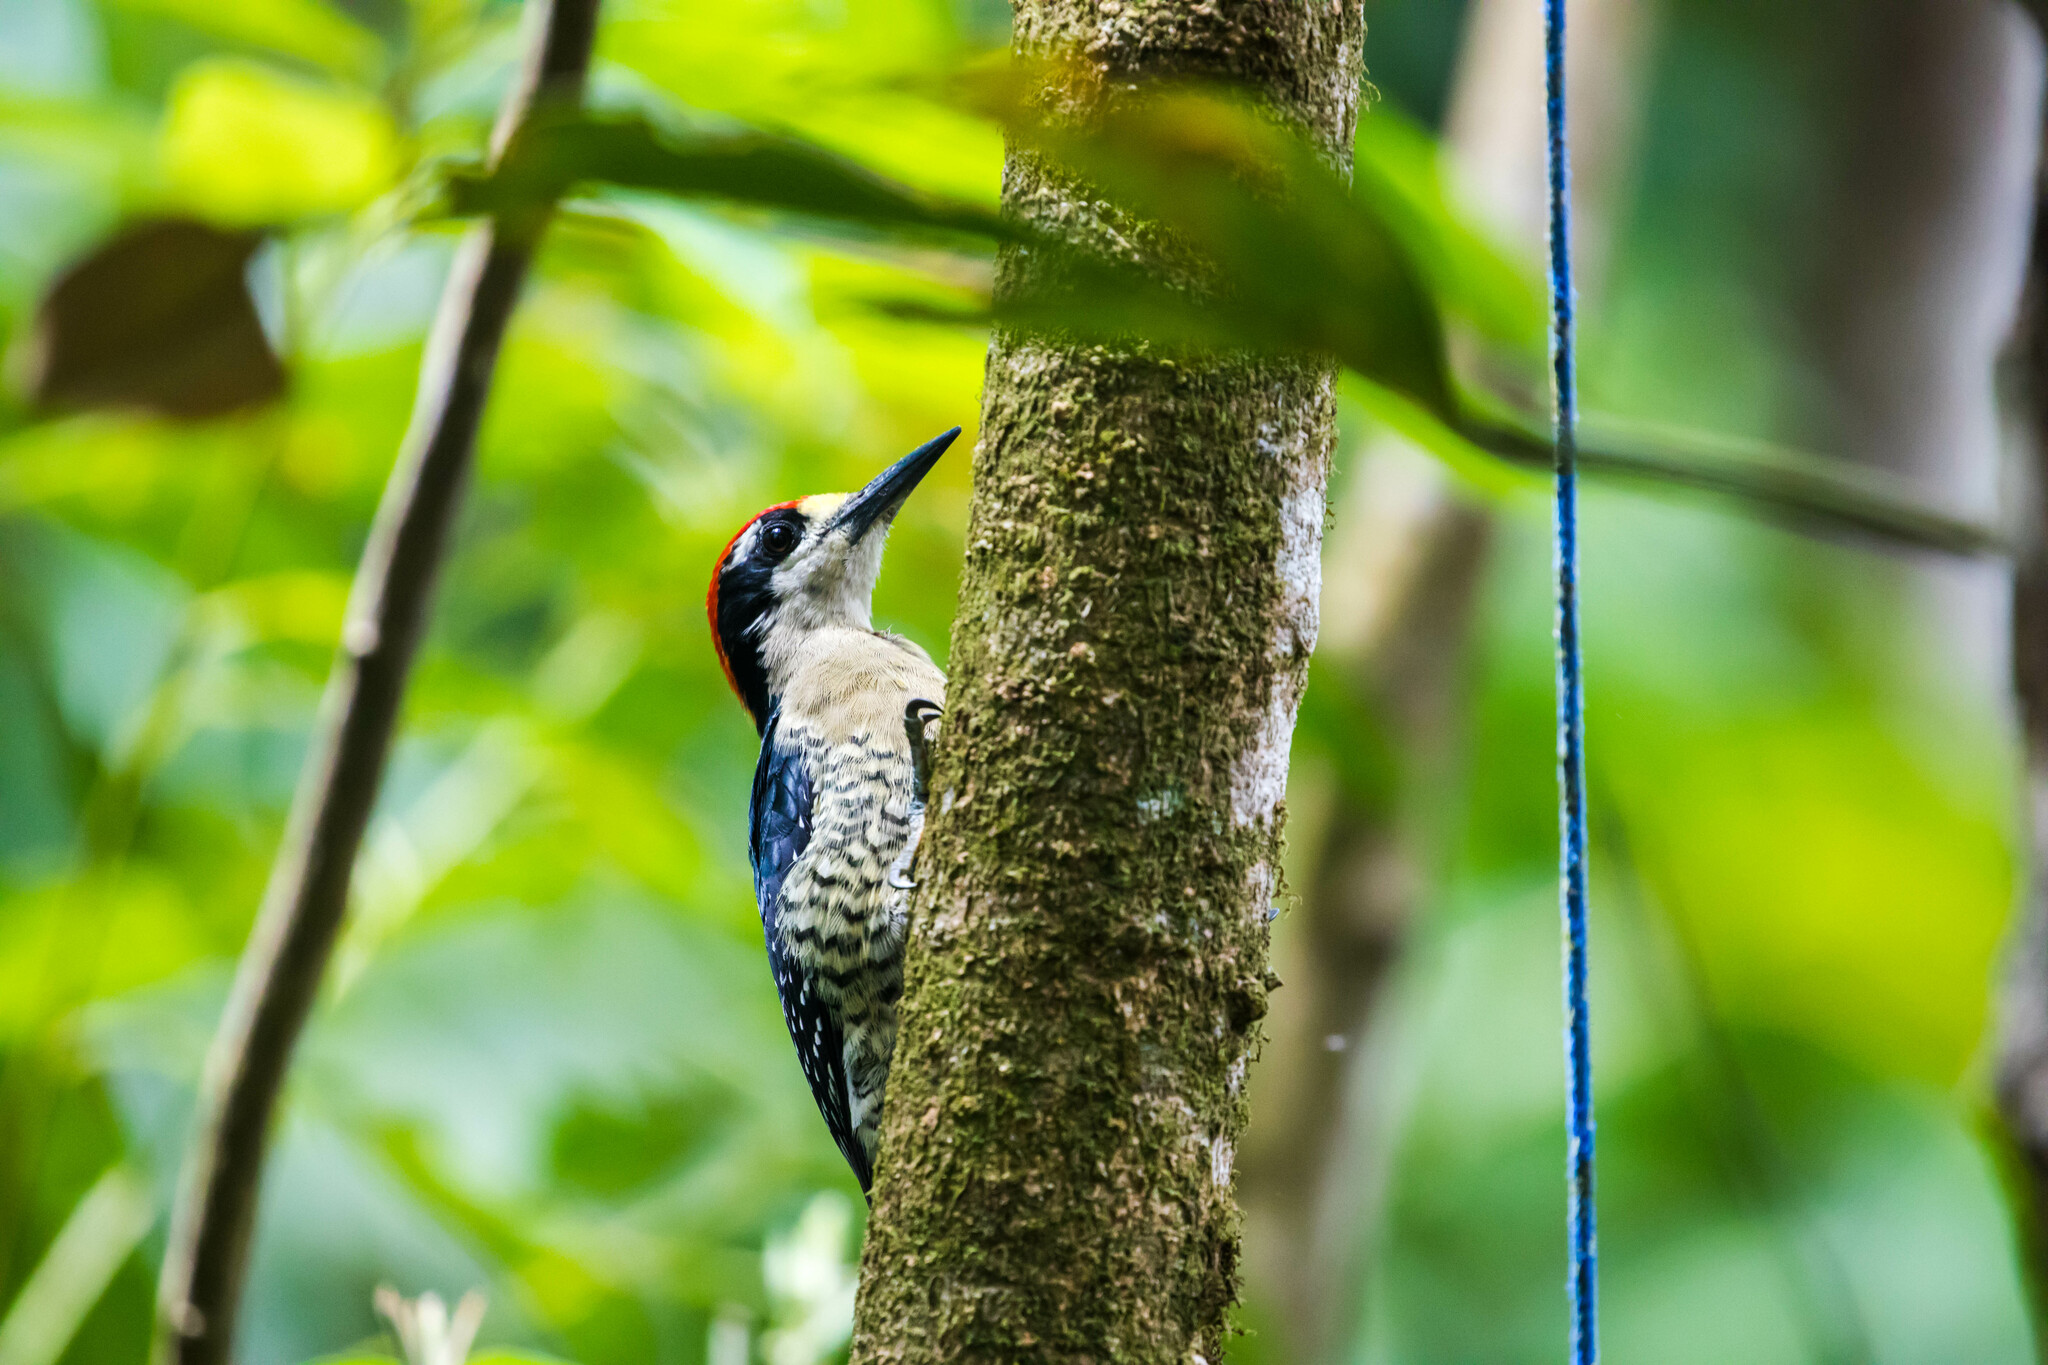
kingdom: Animalia
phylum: Chordata
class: Aves
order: Piciformes
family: Picidae
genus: Melanerpes
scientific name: Melanerpes pucherani
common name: Black-cheeked woodpecker
